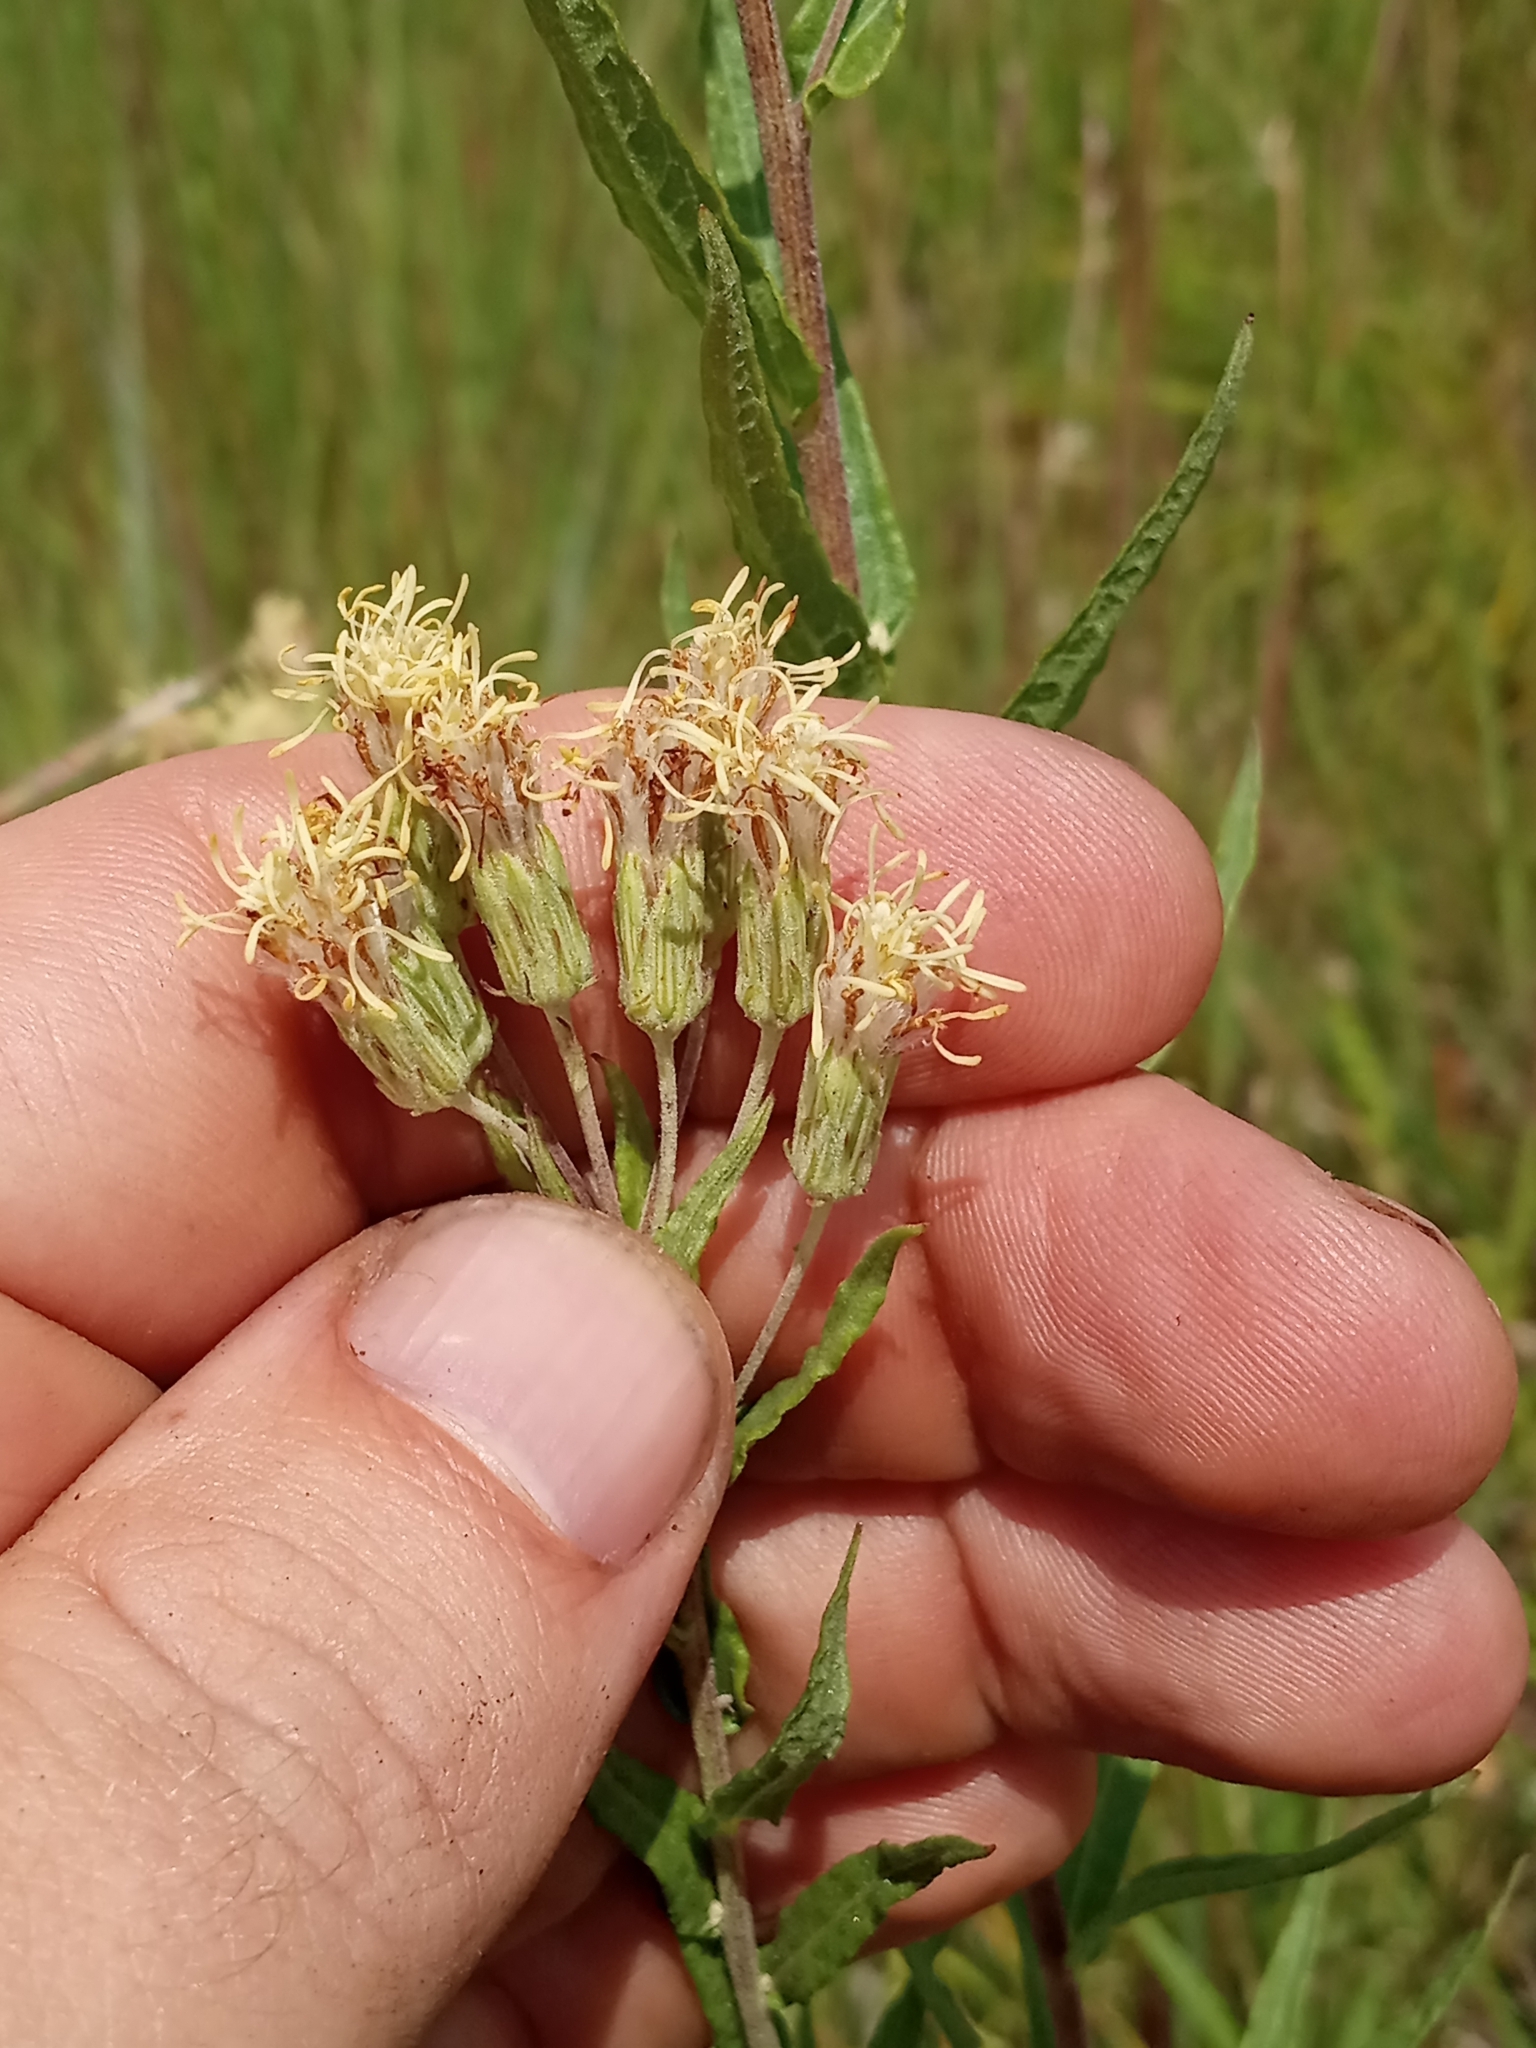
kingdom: Plantae
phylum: Tracheophyta
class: Magnoliopsida
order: Asterales
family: Asteraceae
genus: Brickellia
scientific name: Brickellia eupatorioides
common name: False boneset
